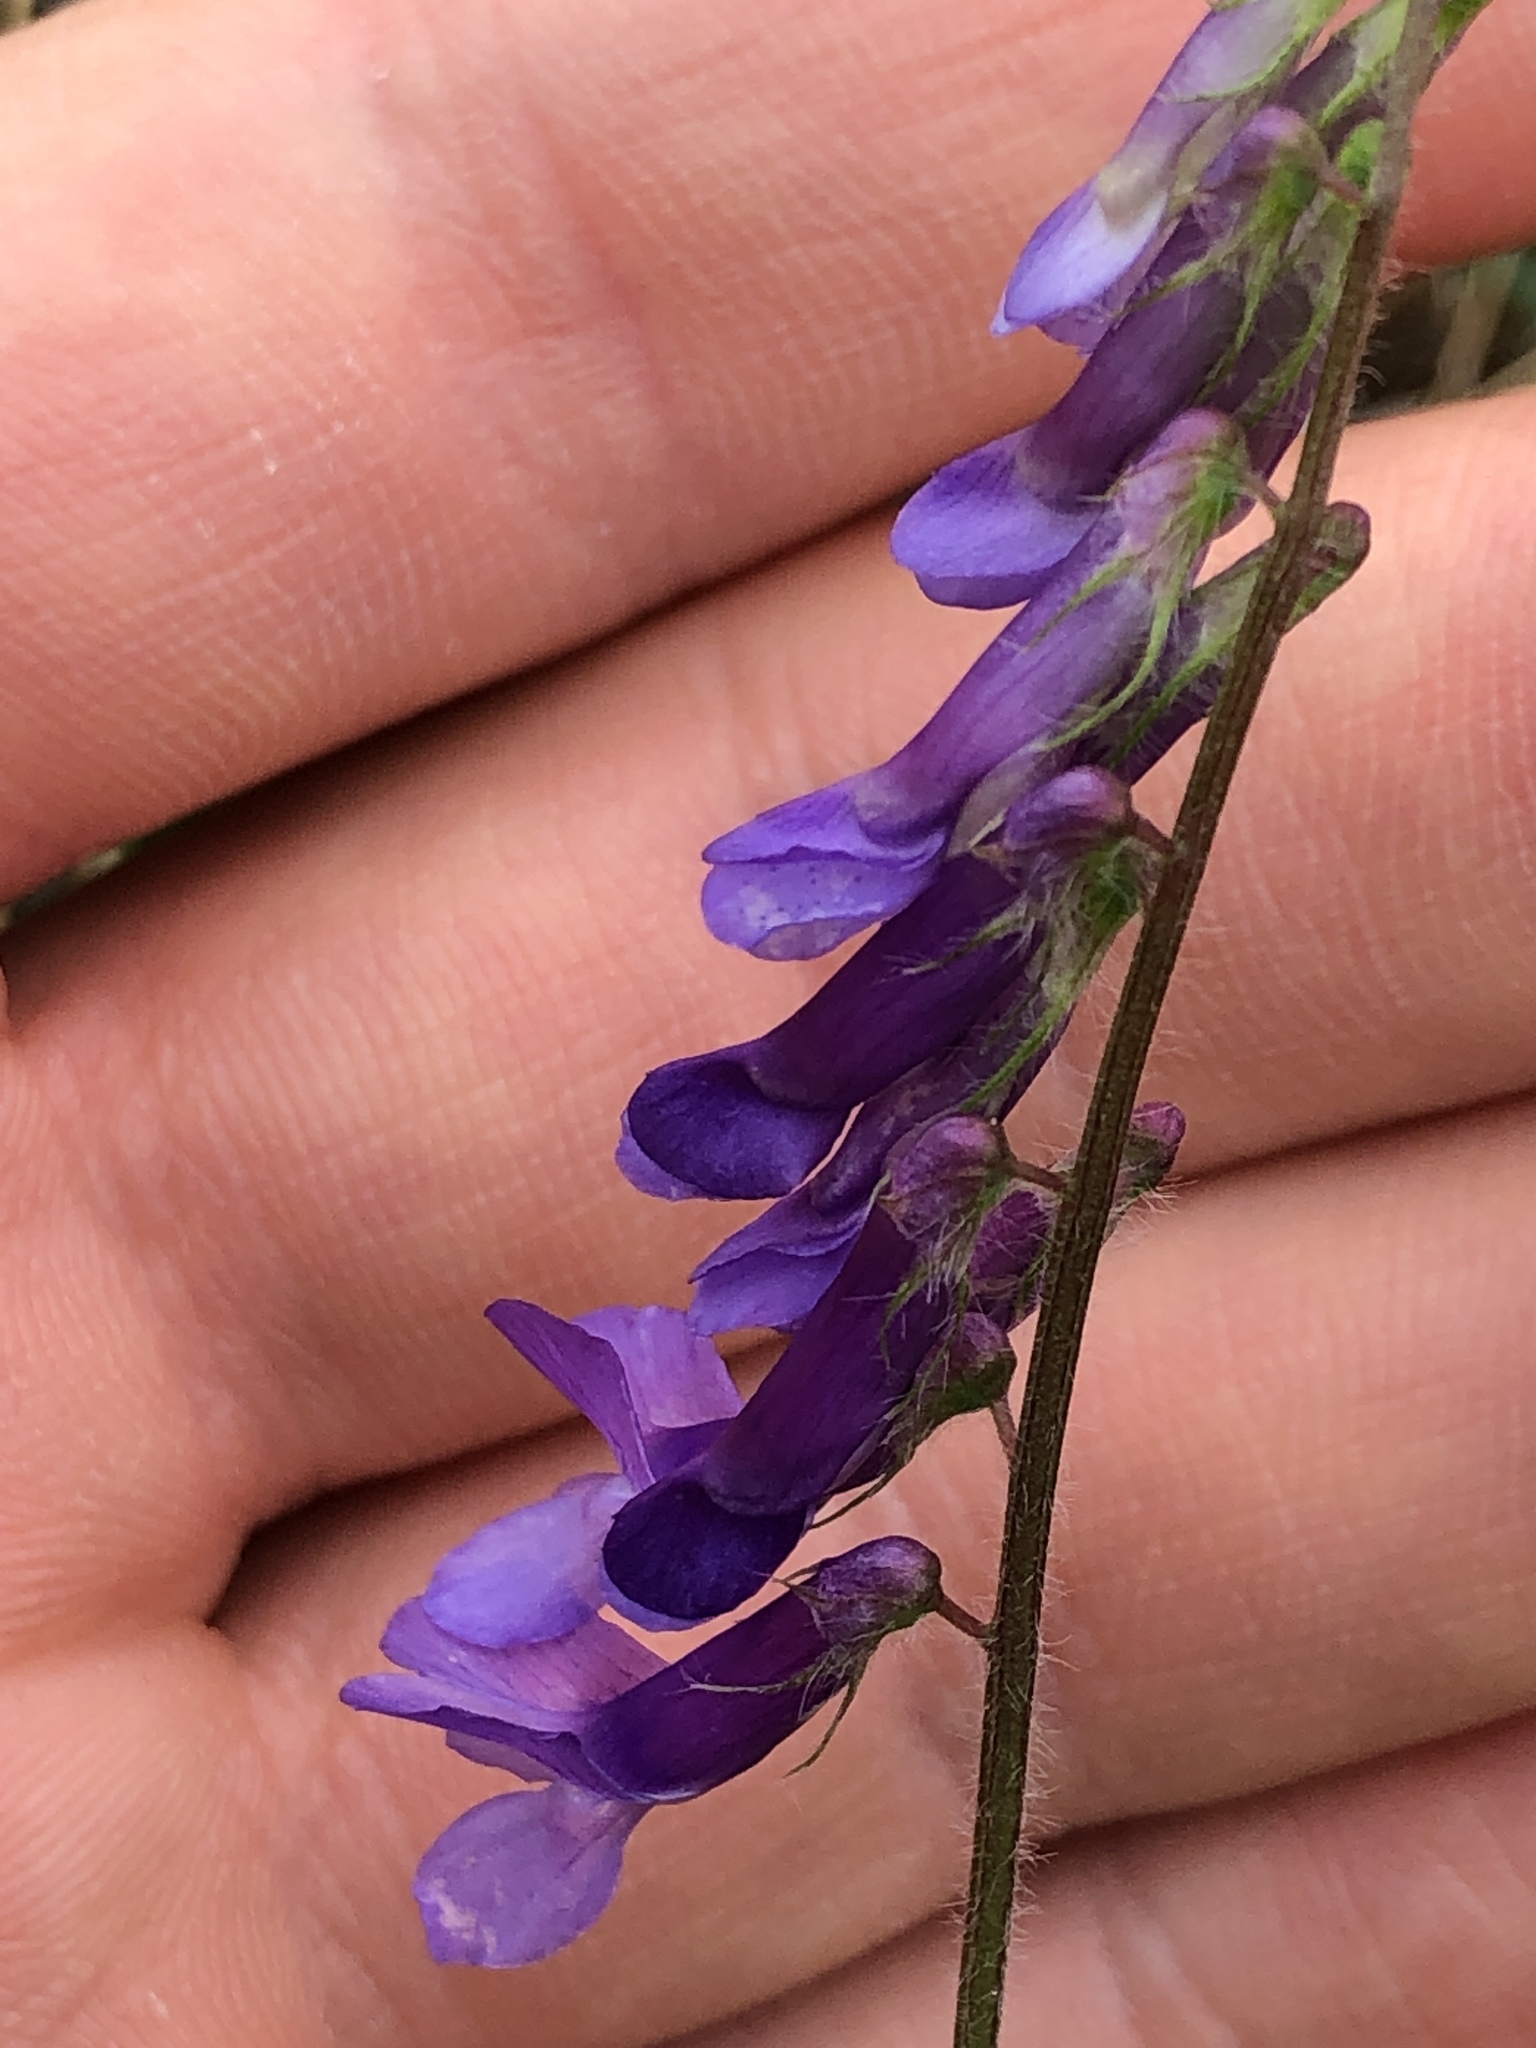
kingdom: Plantae
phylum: Tracheophyta
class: Magnoliopsida
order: Fabales
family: Fabaceae
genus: Vicia
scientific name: Vicia villosa
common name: Fodder vetch
